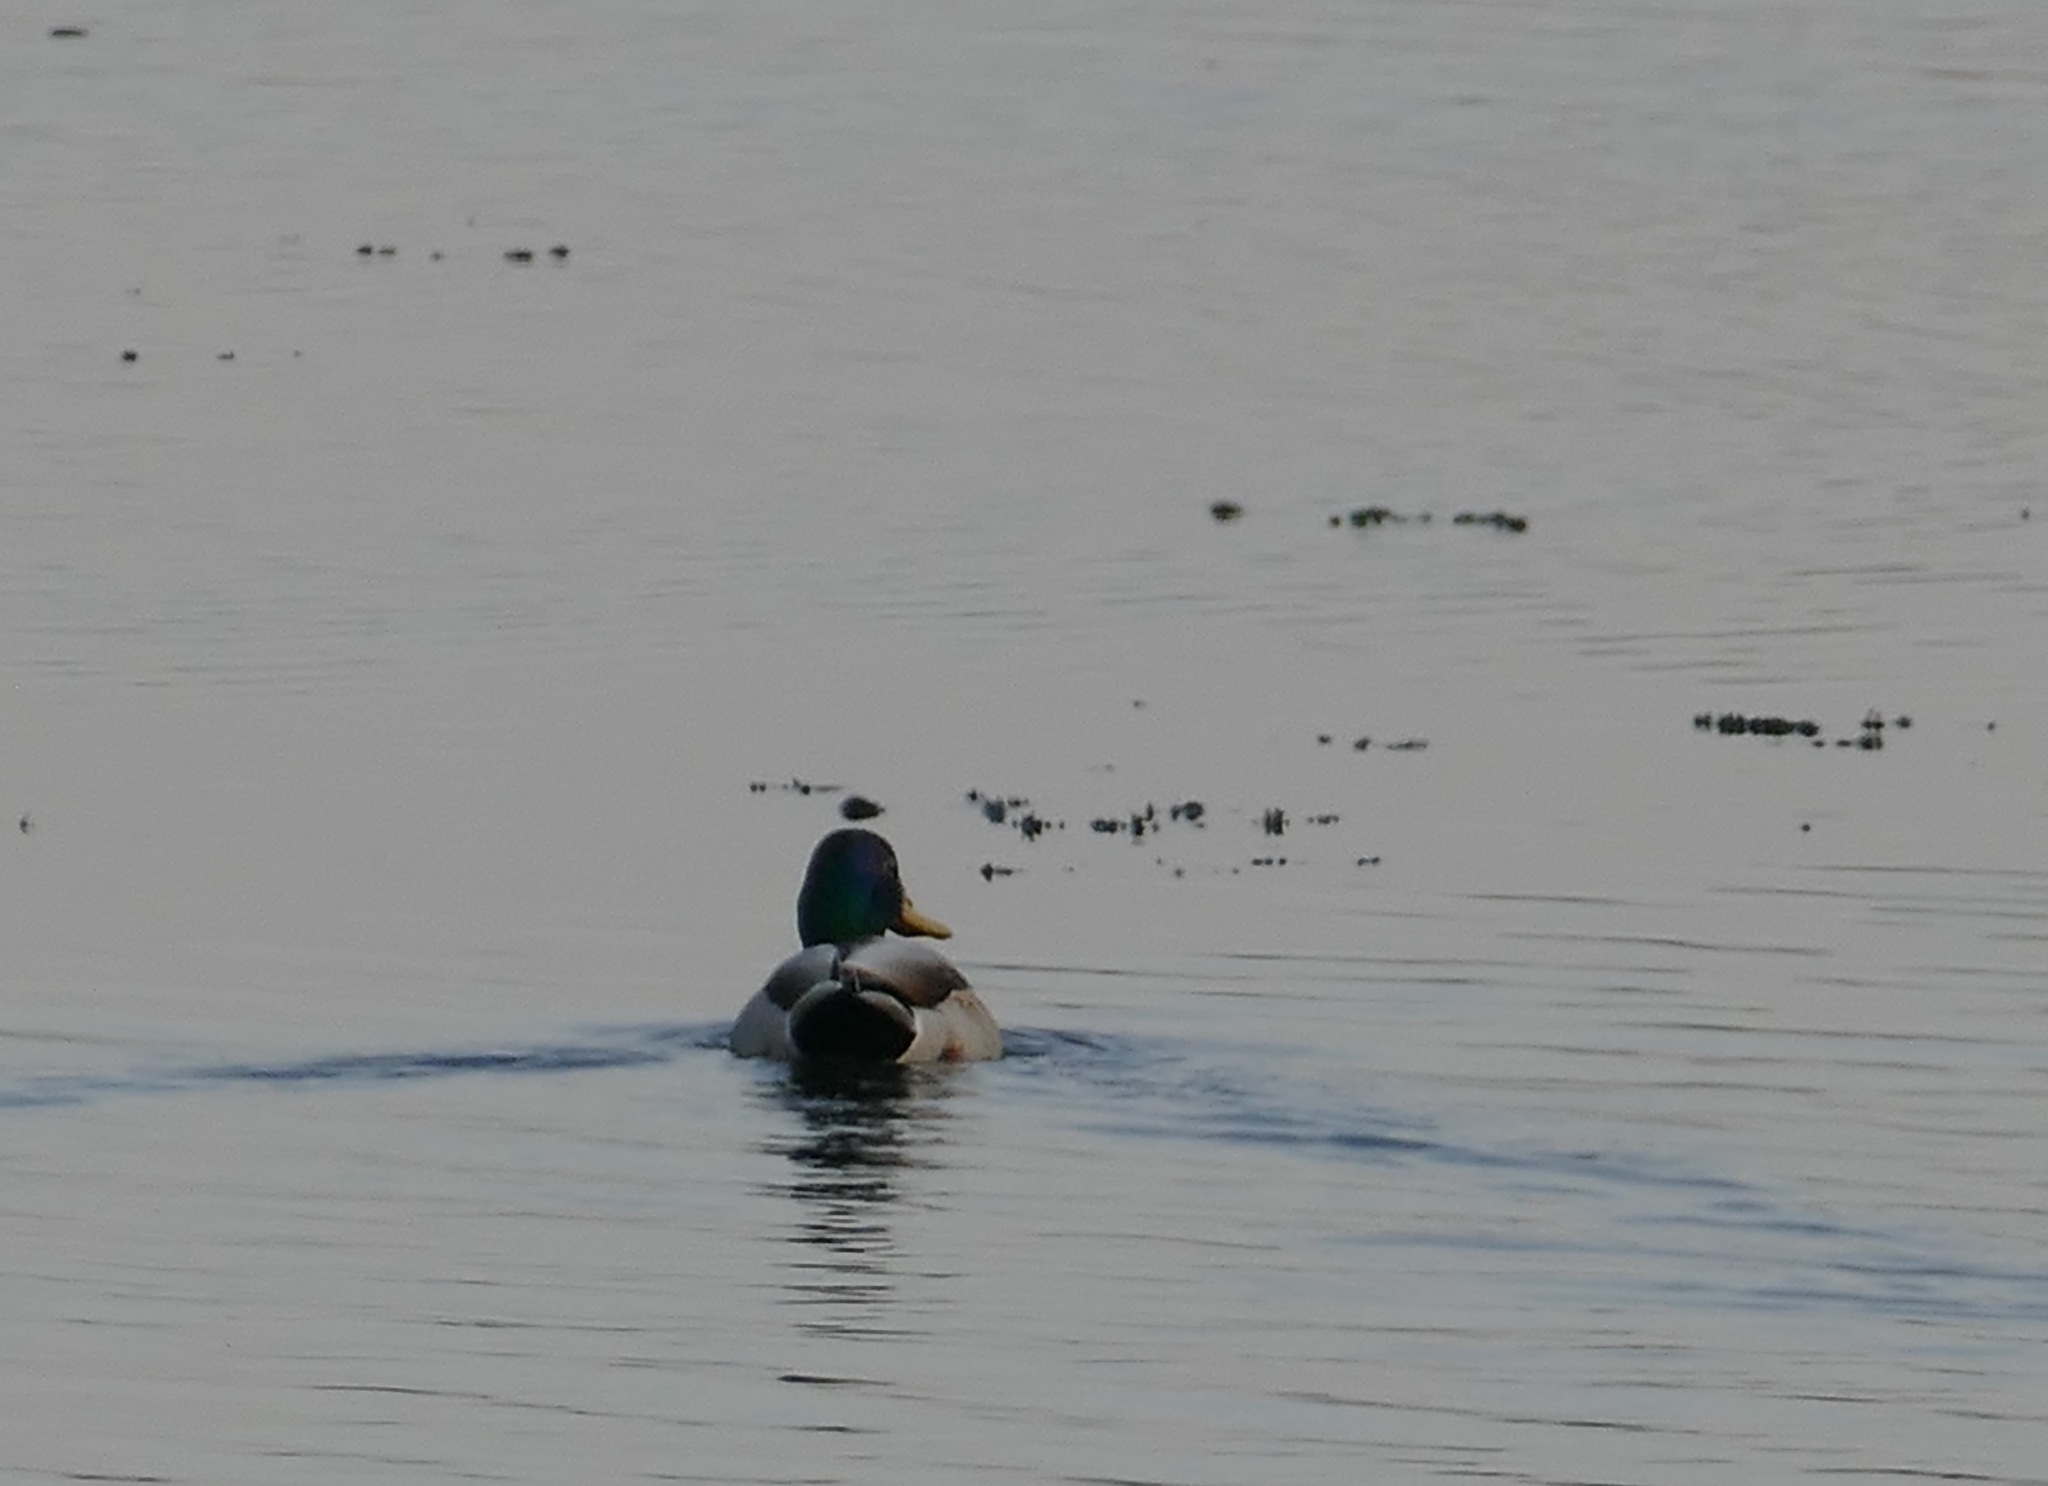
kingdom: Animalia
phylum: Chordata
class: Aves
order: Anseriformes
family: Anatidae
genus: Anas
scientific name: Anas platyrhynchos
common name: Mallard
